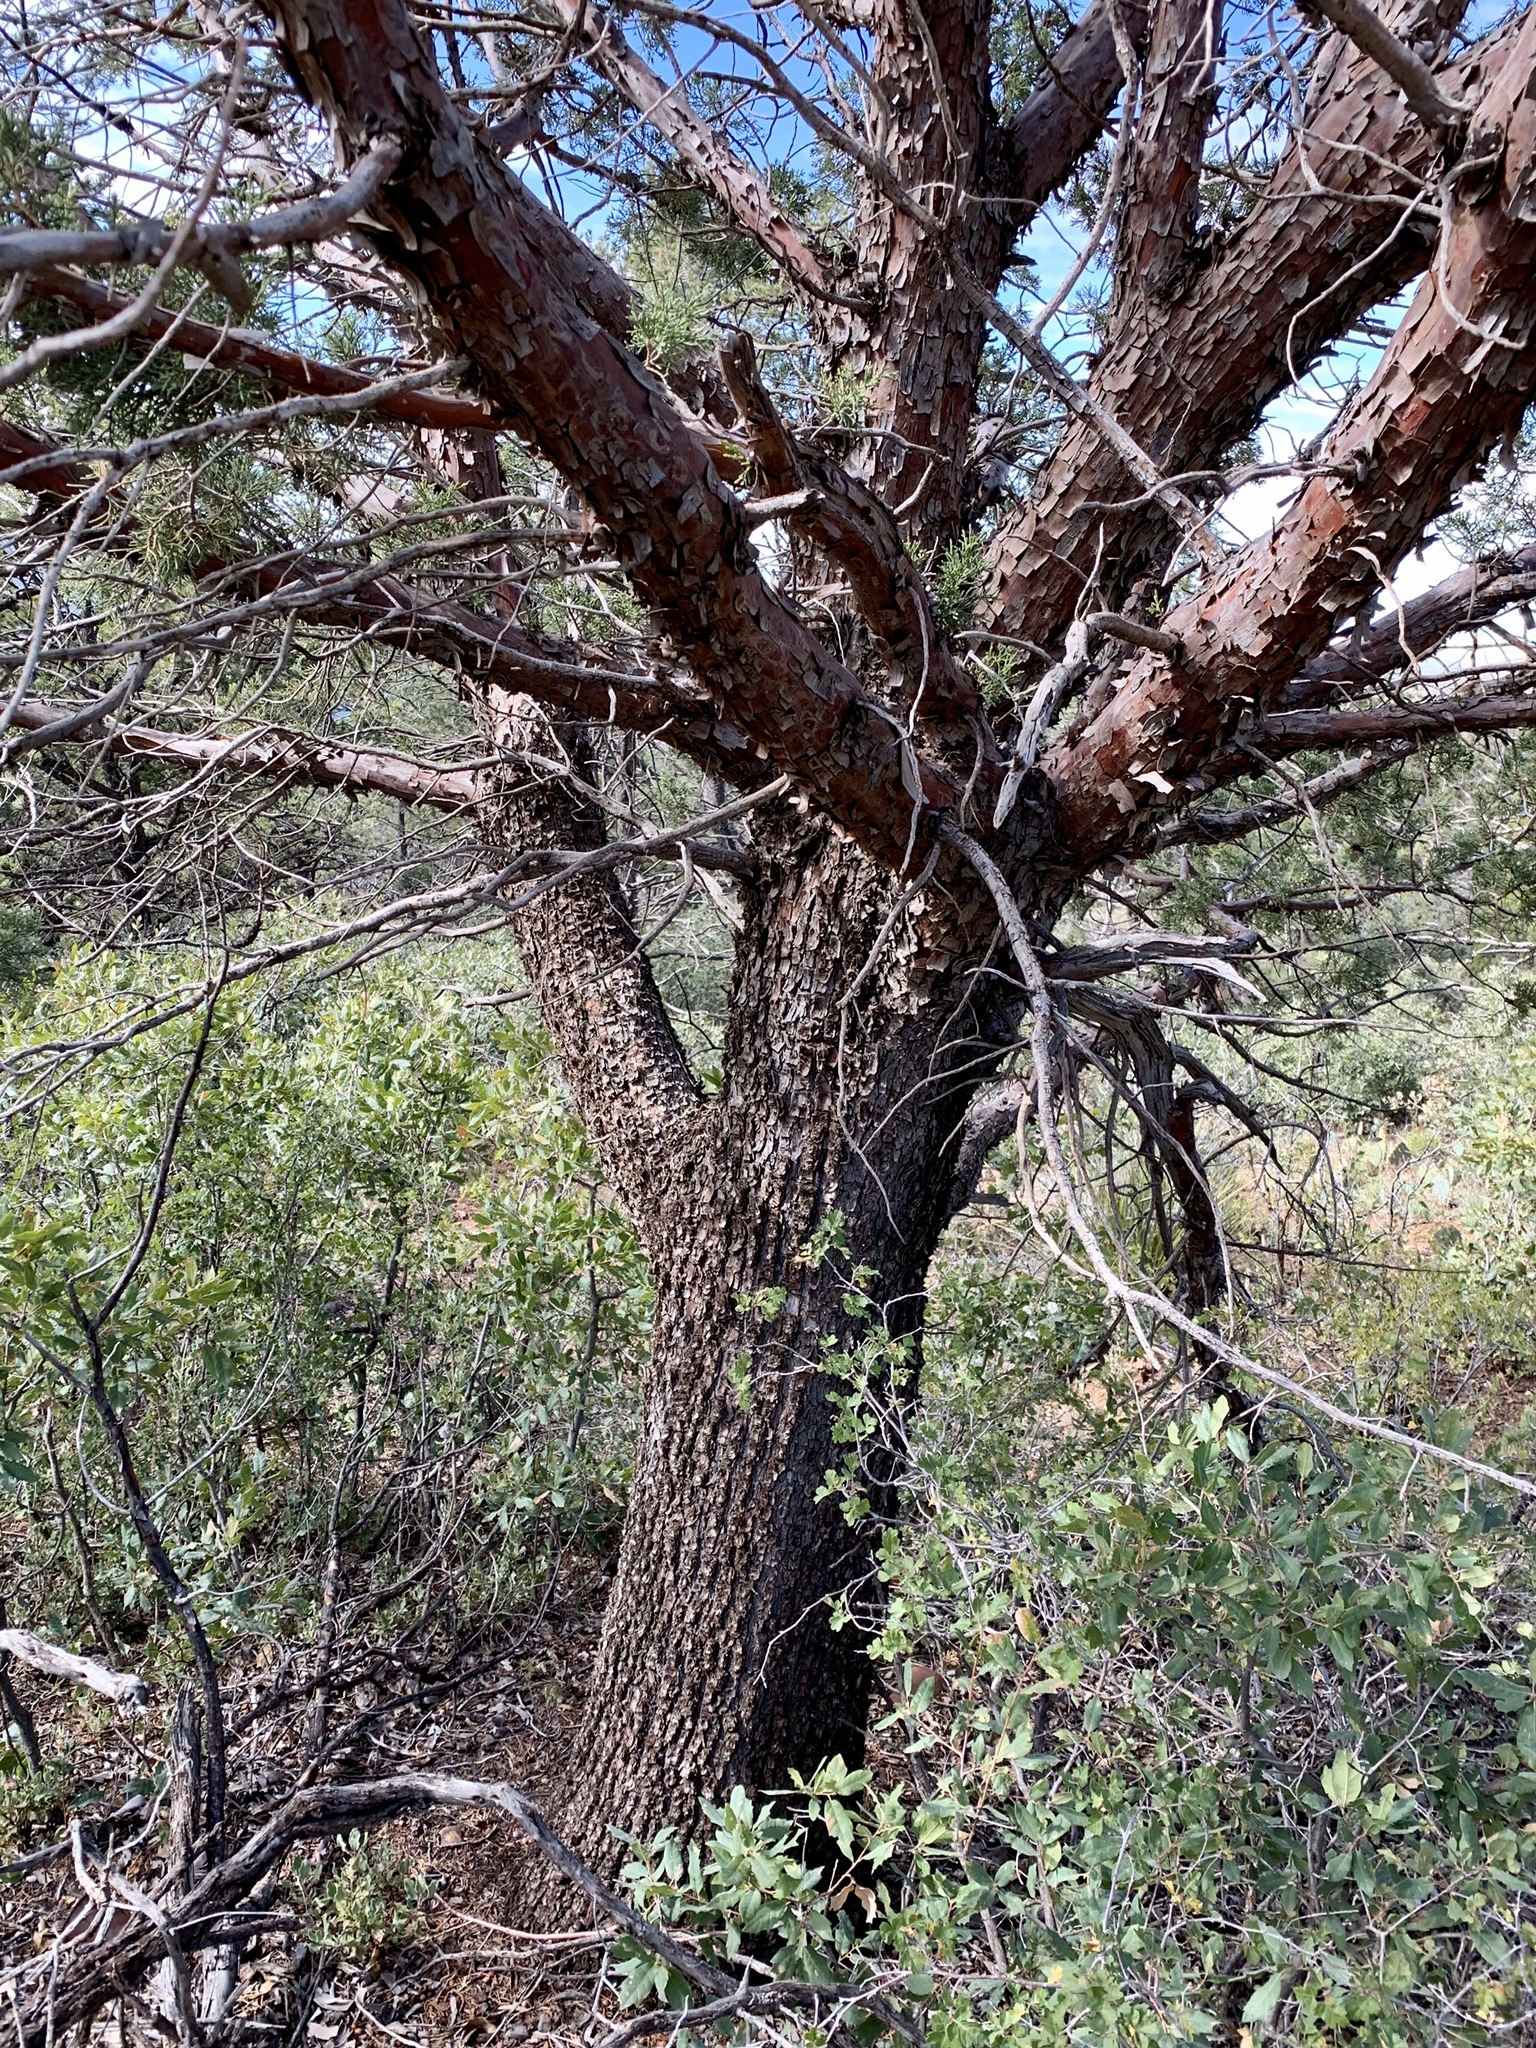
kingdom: Plantae
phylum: Tracheophyta
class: Pinopsida
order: Pinales
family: Cupressaceae
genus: Juniperus
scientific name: Juniperus deppeana
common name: Alligator juniper
